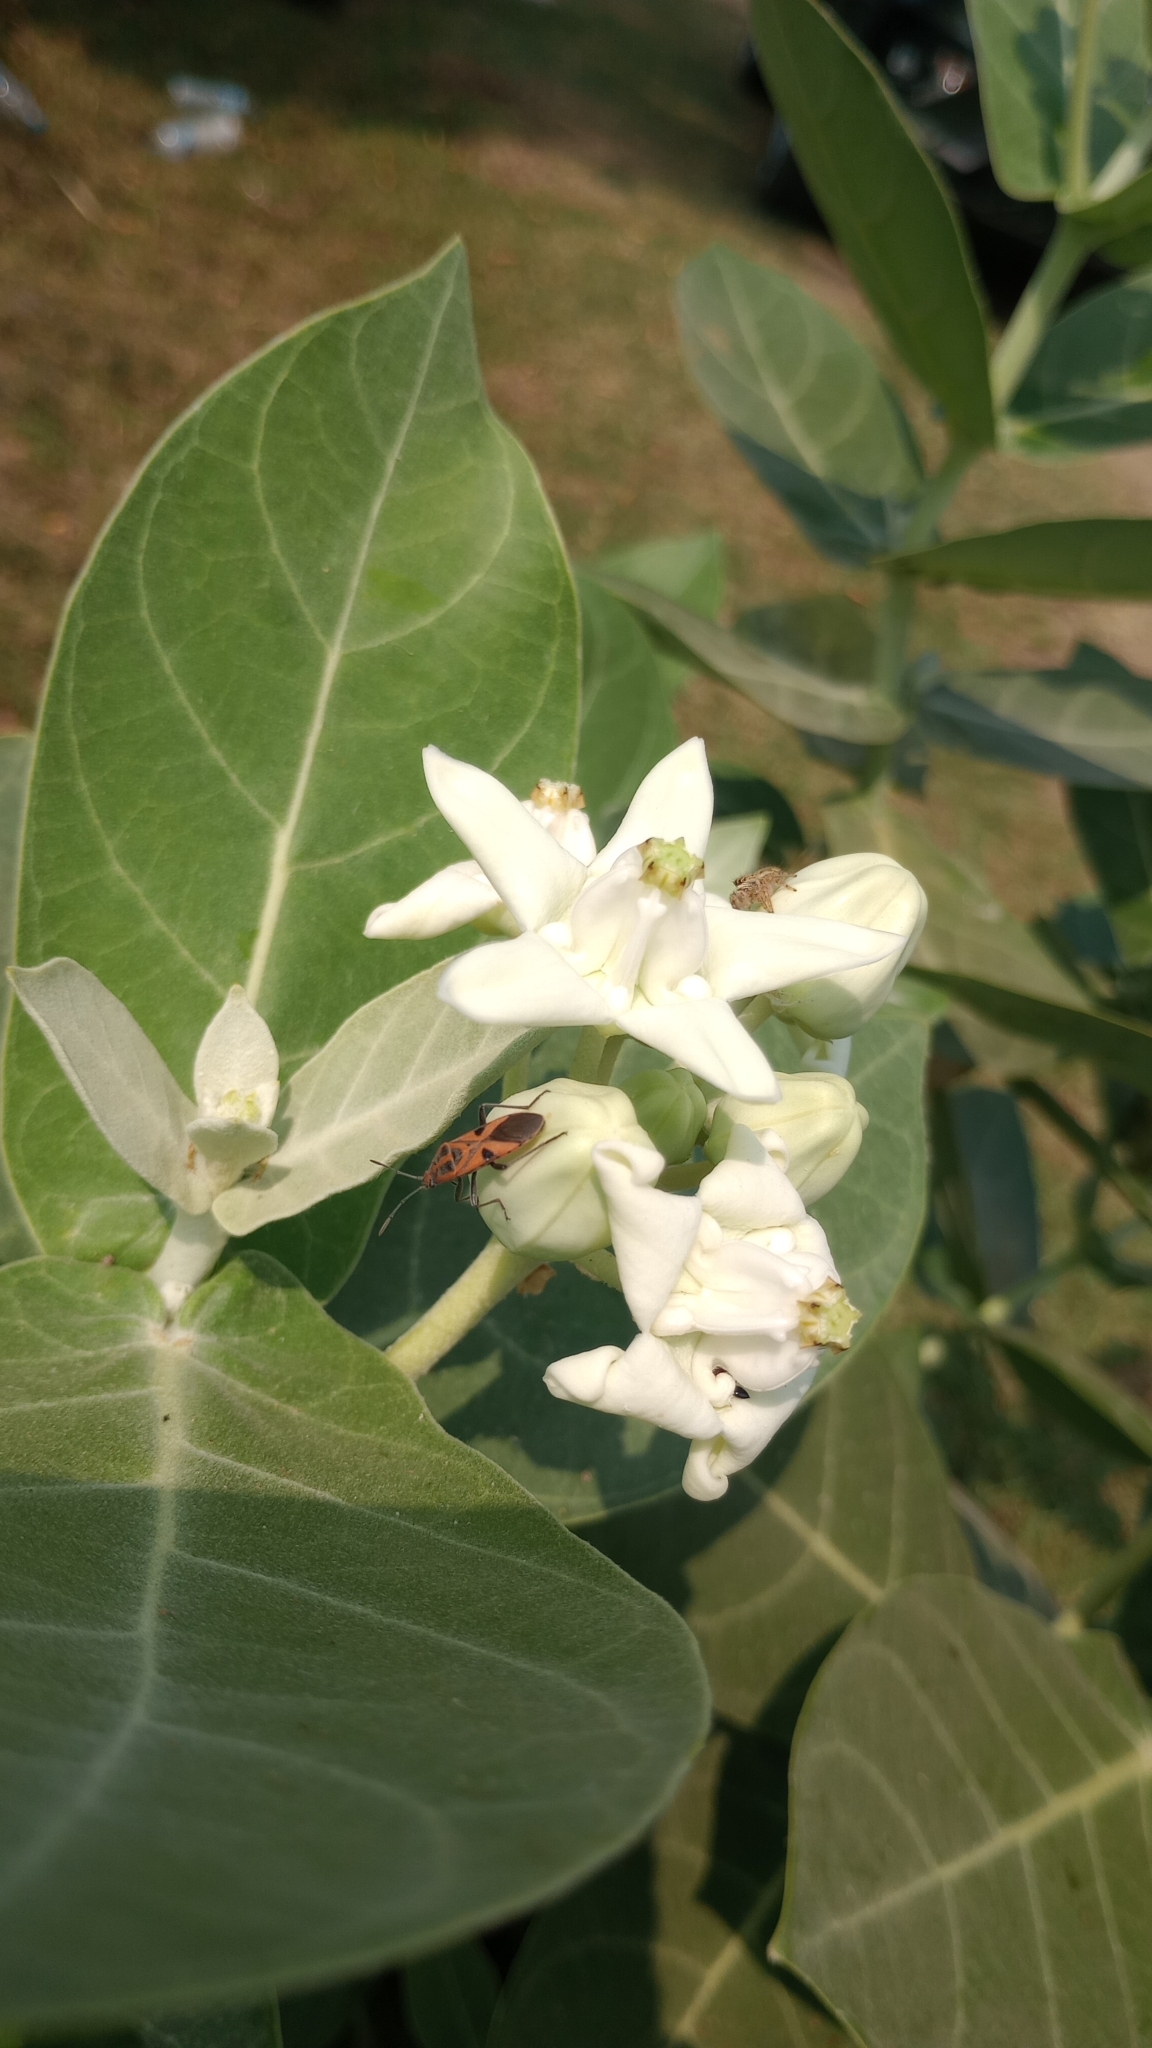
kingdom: Animalia
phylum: Arthropoda
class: Insecta
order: Hemiptera
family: Lygaeidae
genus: Spilostethus
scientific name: Spilostethus hospes
